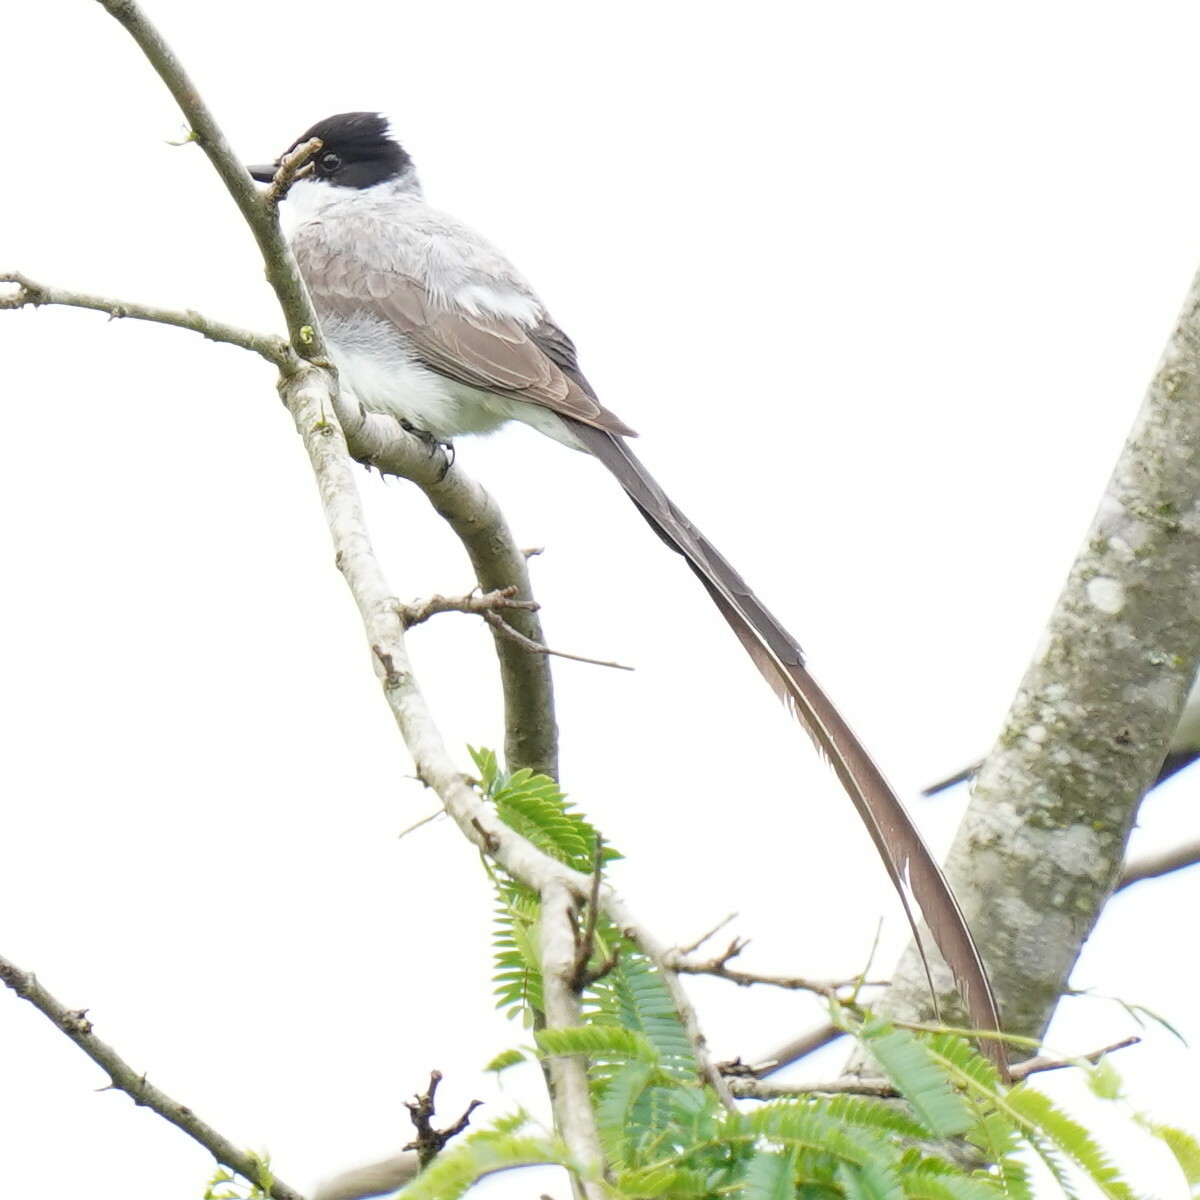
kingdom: Animalia
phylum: Chordata
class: Aves
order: Passeriformes
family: Tyrannidae
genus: Tyrannus
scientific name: Tyrannus savana
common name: Fork-tailed flycatcher
